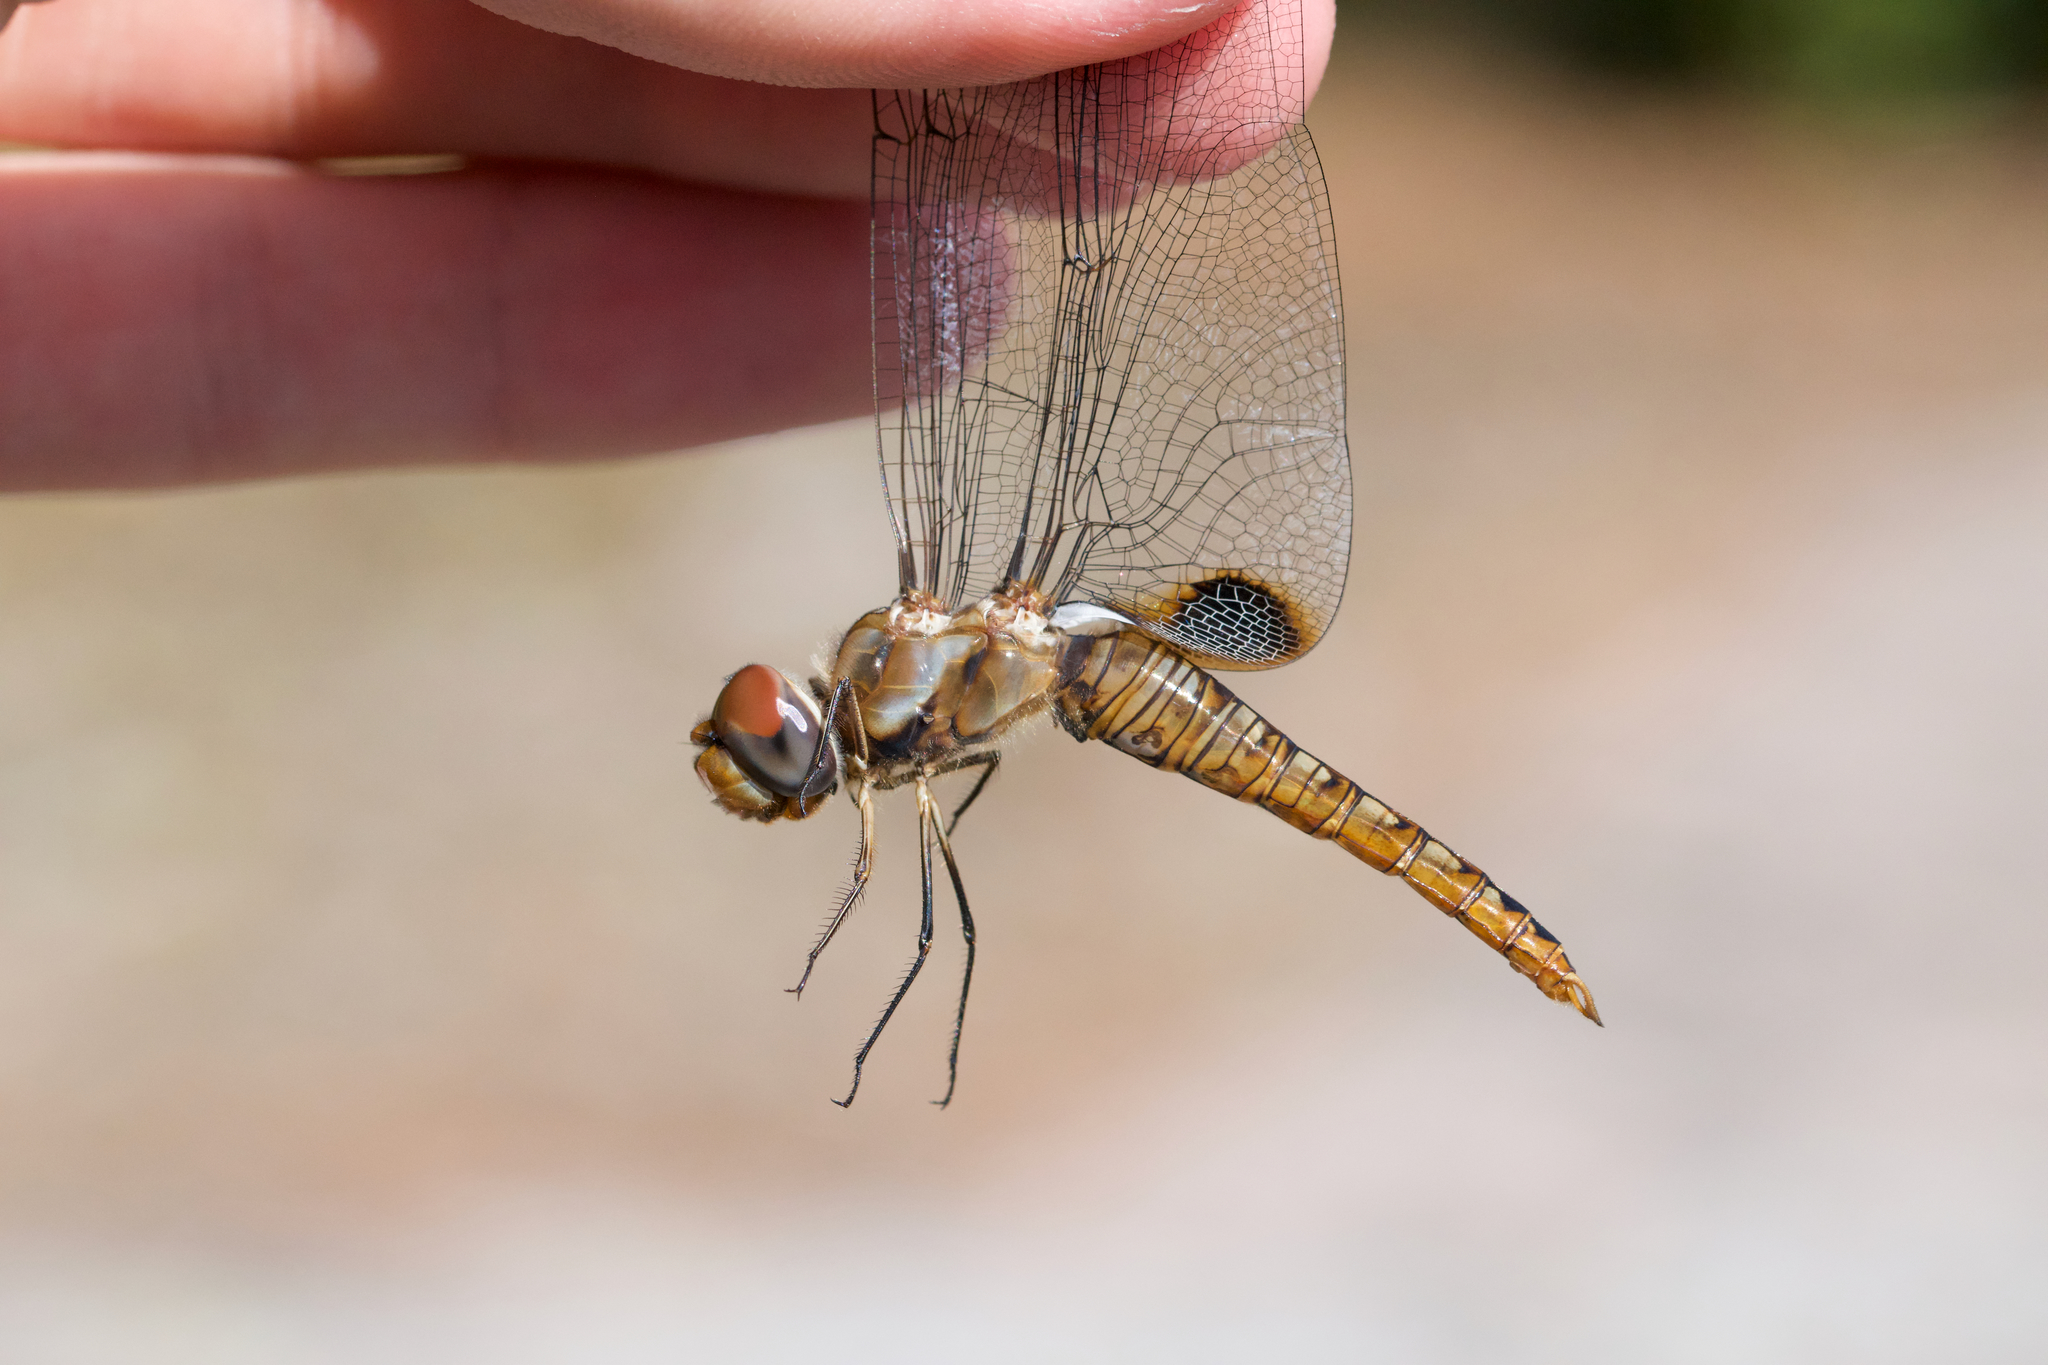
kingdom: Animalia
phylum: Arthropoda
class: Insecta
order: Odonata
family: Libellulidae
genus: Pantala
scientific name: Pantala hymenaea
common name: Spot-winged glider
